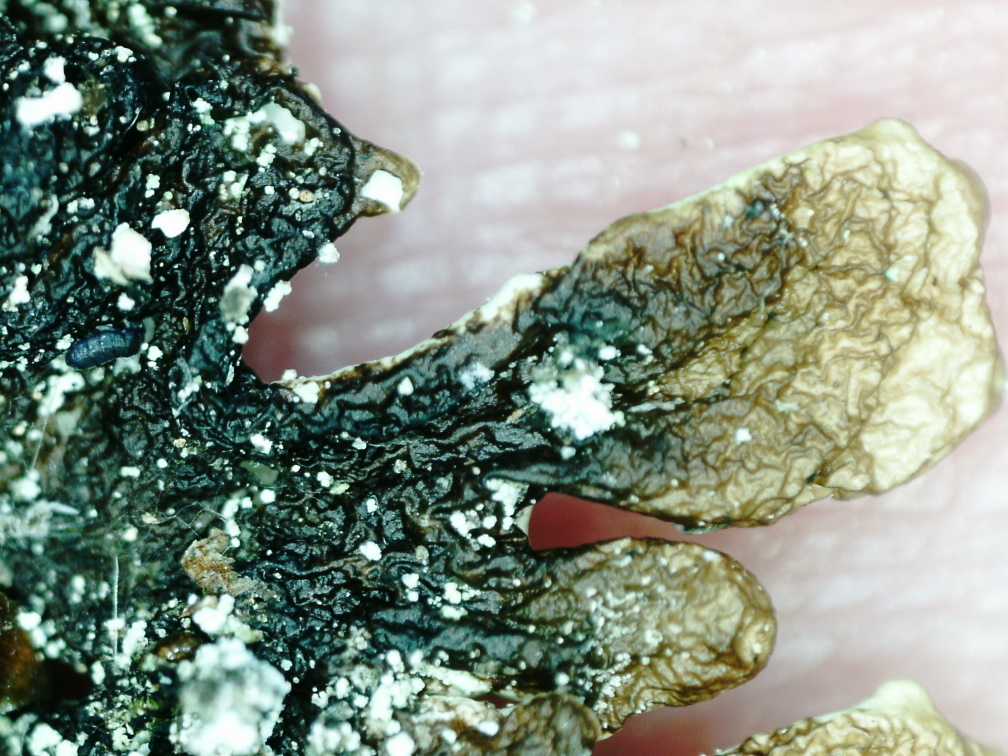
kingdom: Fungi
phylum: Ascomycota
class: Lecanoromycetes
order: Lecanorales
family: Parmeliaceae
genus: Hypogymnia
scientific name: Hypogymnia farinacea
